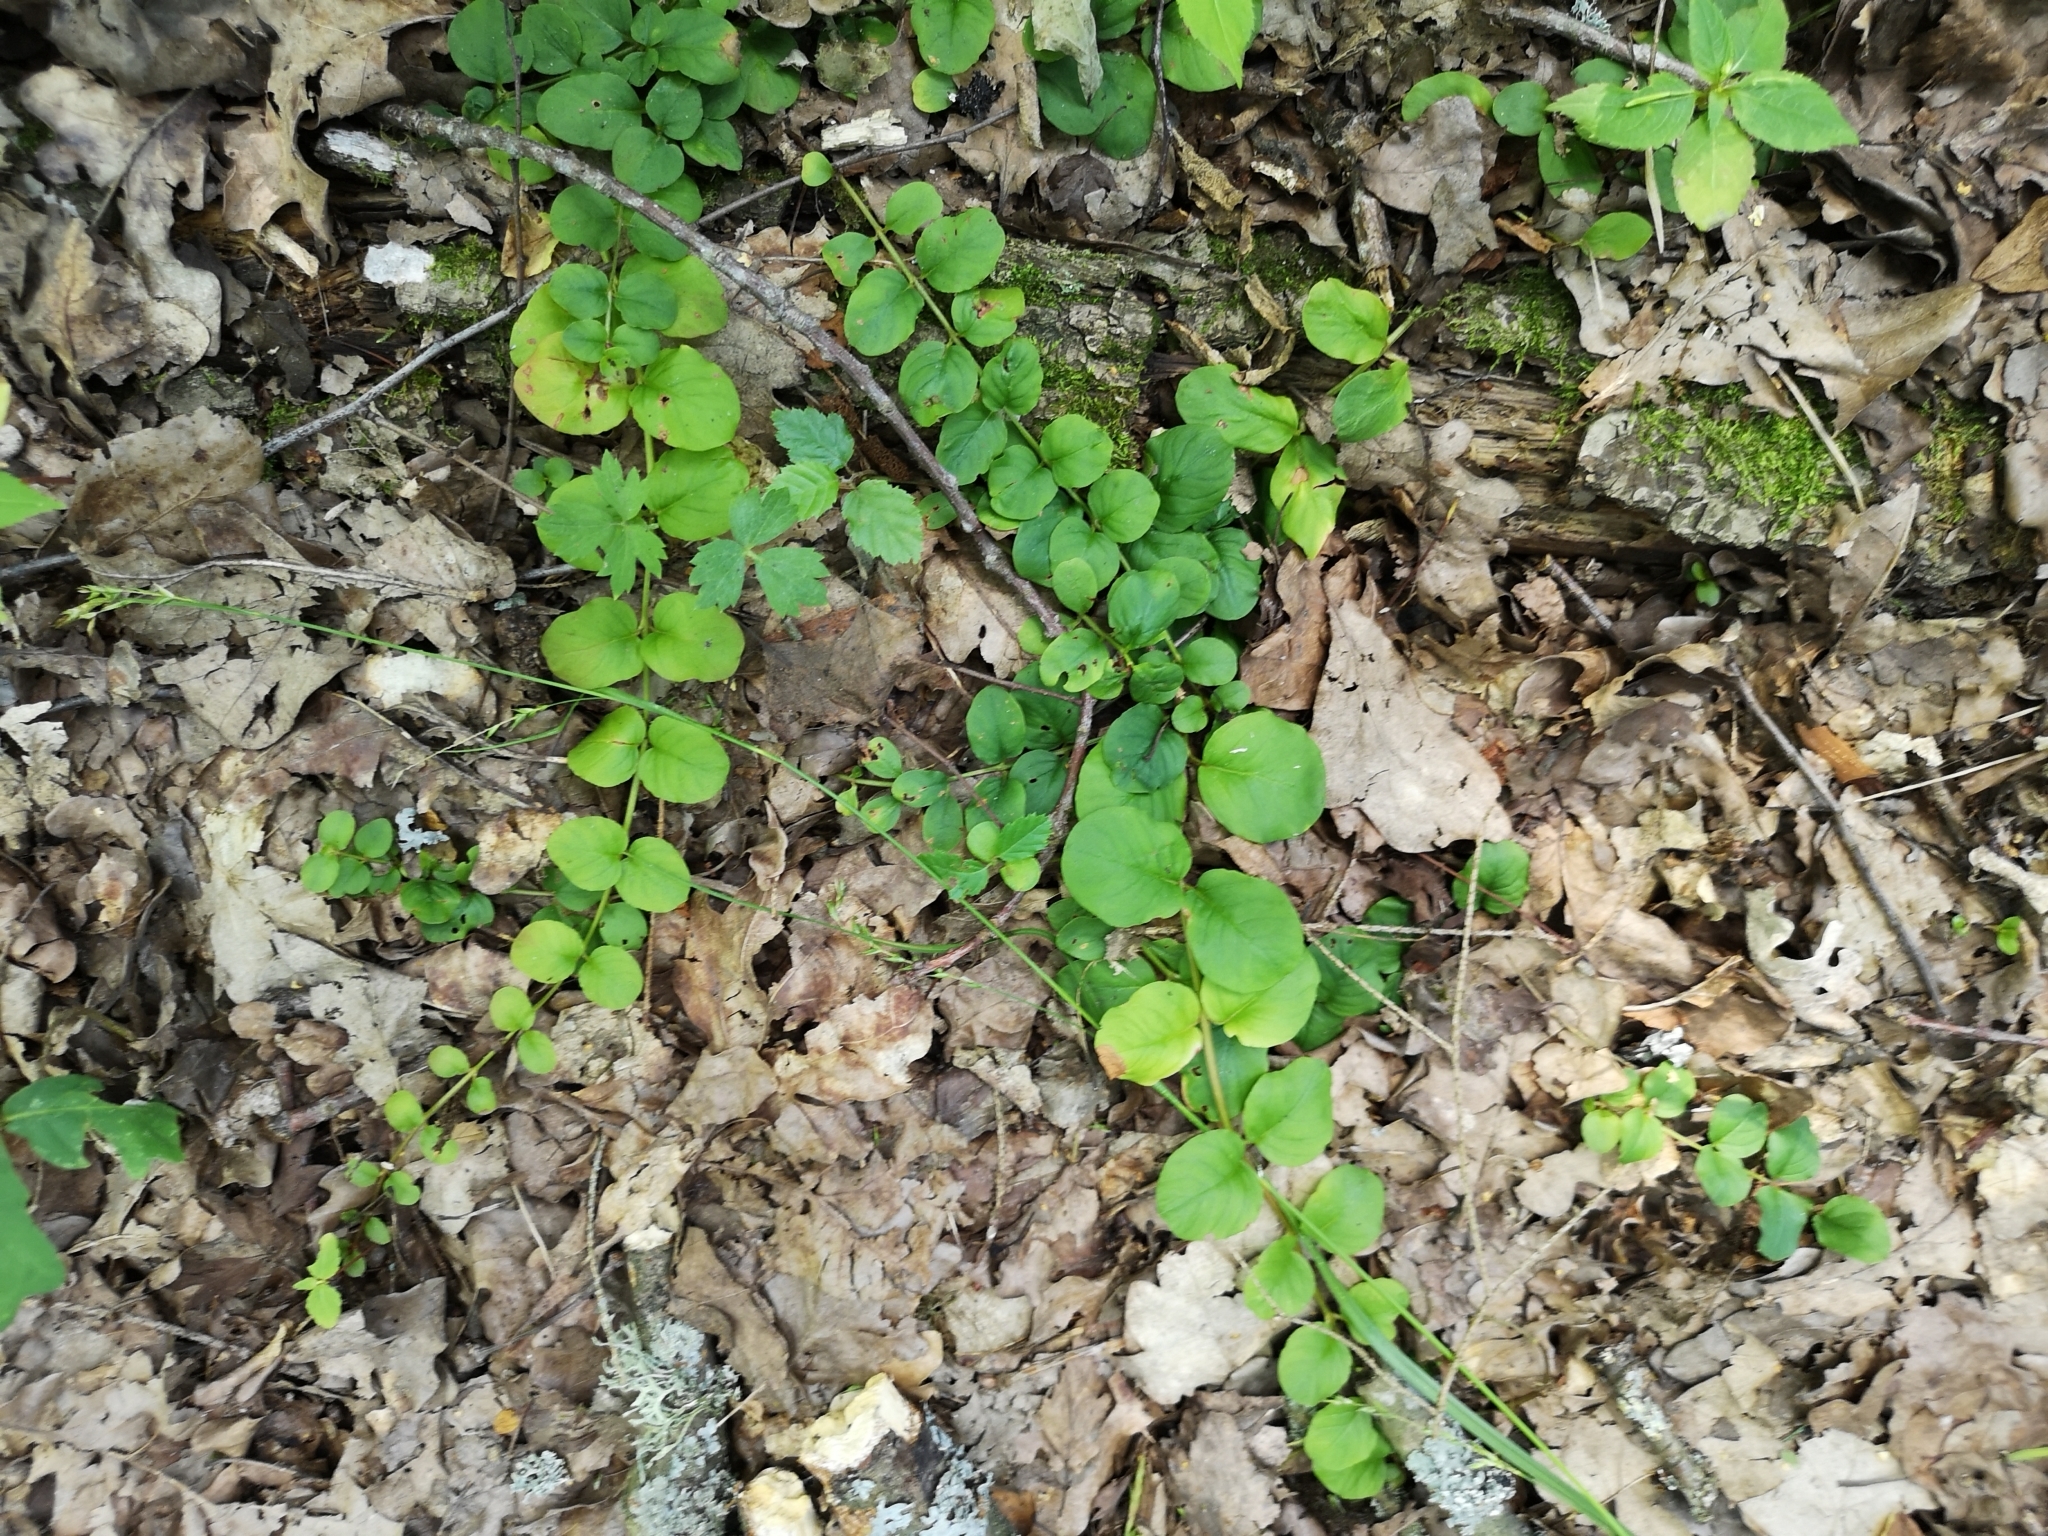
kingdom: Plantae
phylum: Tracheophyta
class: Magnoliopsida
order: Ericales
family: Primulaceae
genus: Lysimachia
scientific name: Lysimachia nummularia
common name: Moneywort
